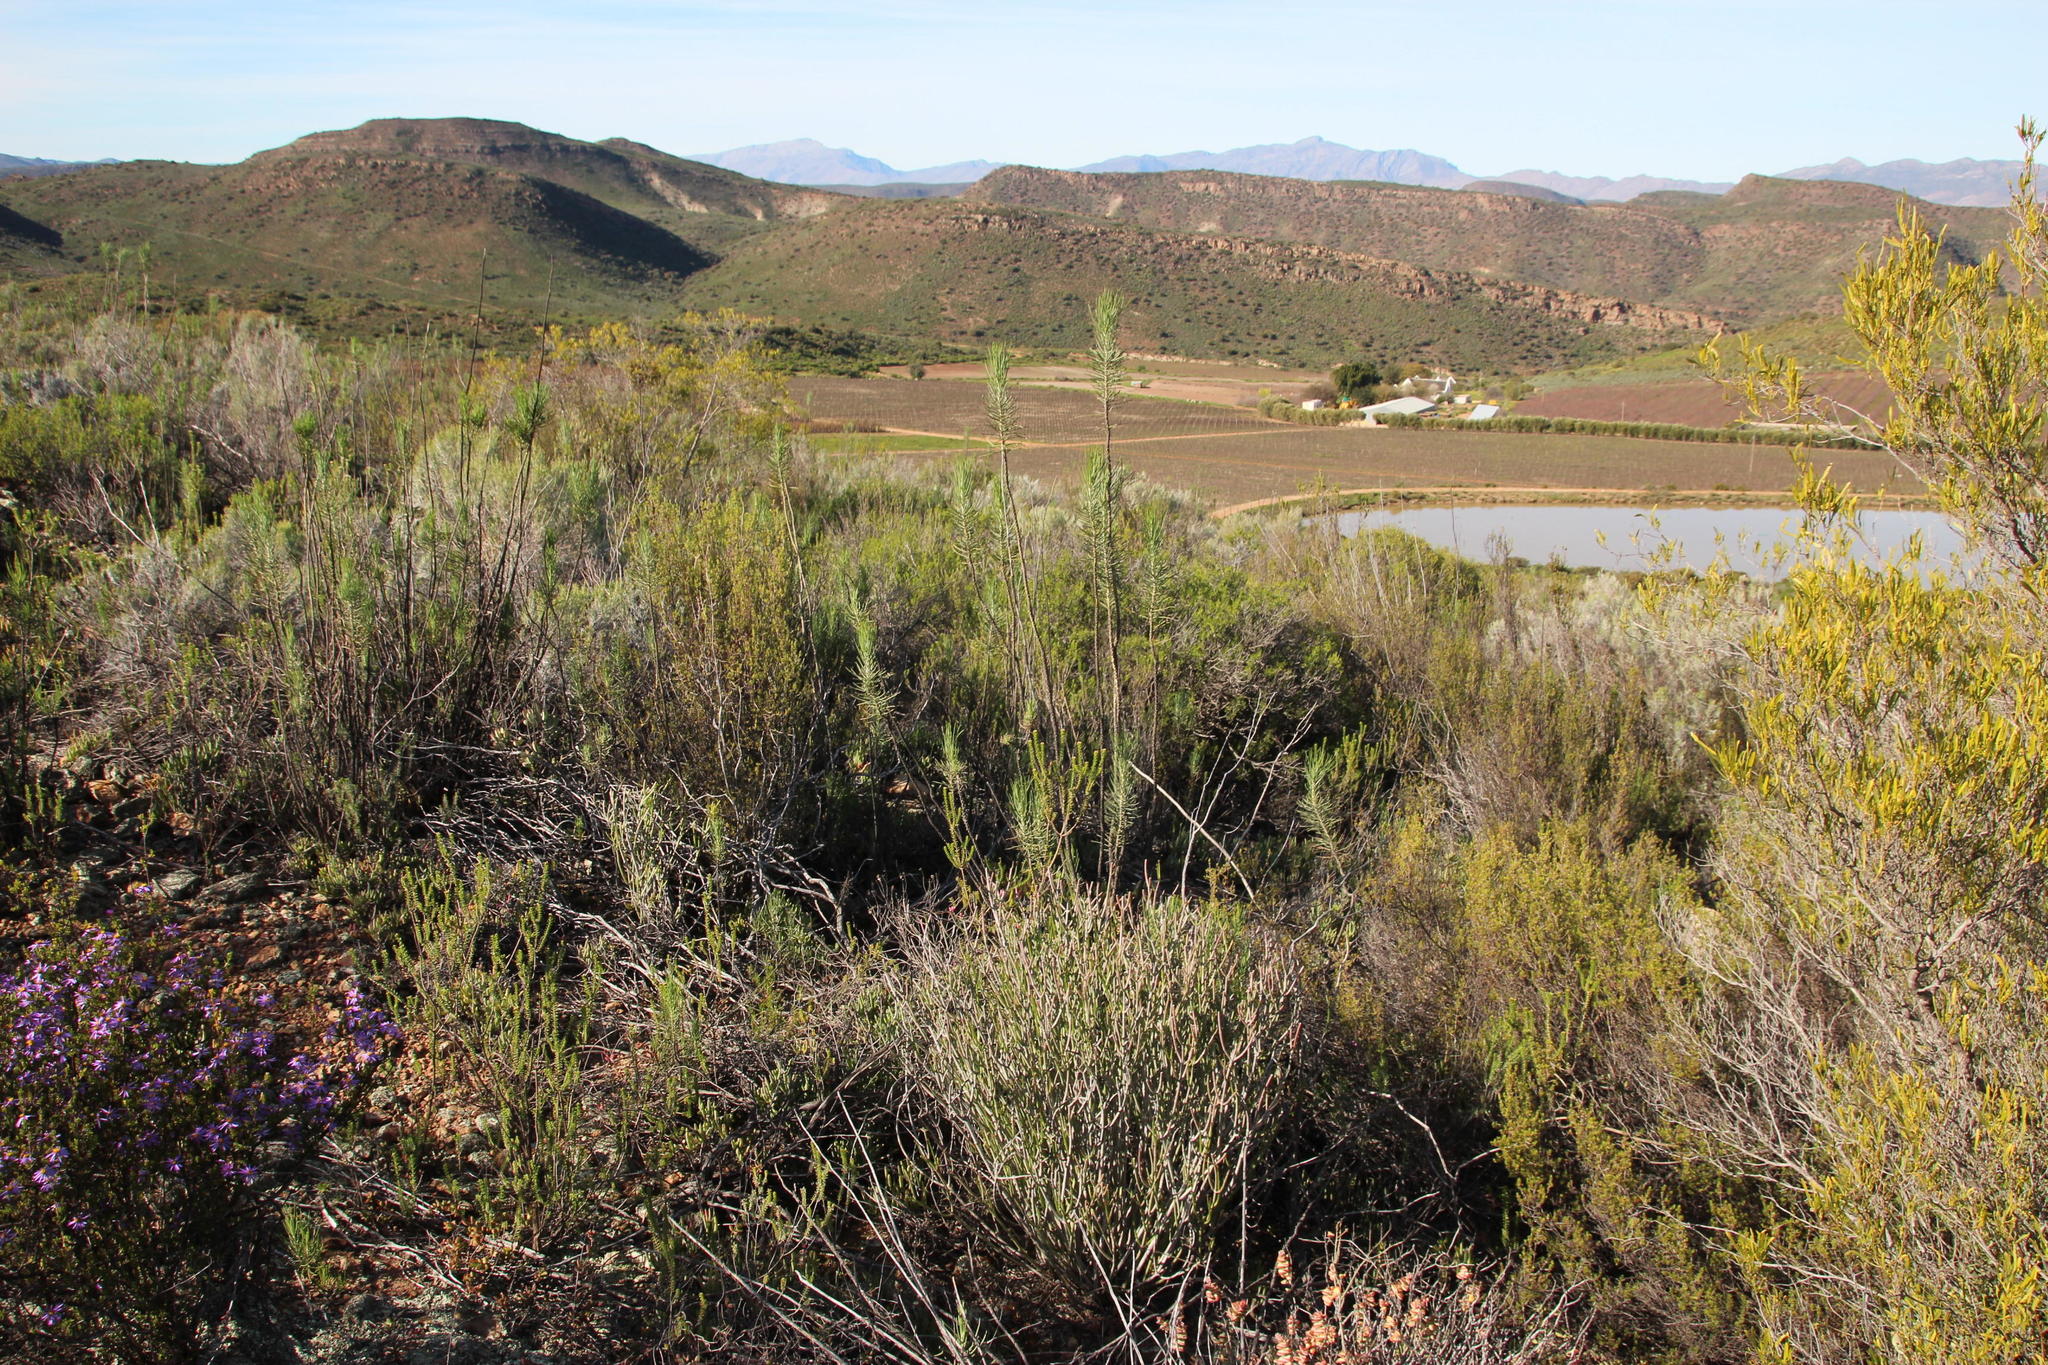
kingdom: Plantae
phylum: Tracheophyta
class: Magnoliopsida
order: Asterales
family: Asteraceae
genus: Euryops
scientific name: Euryops tenuissimus
